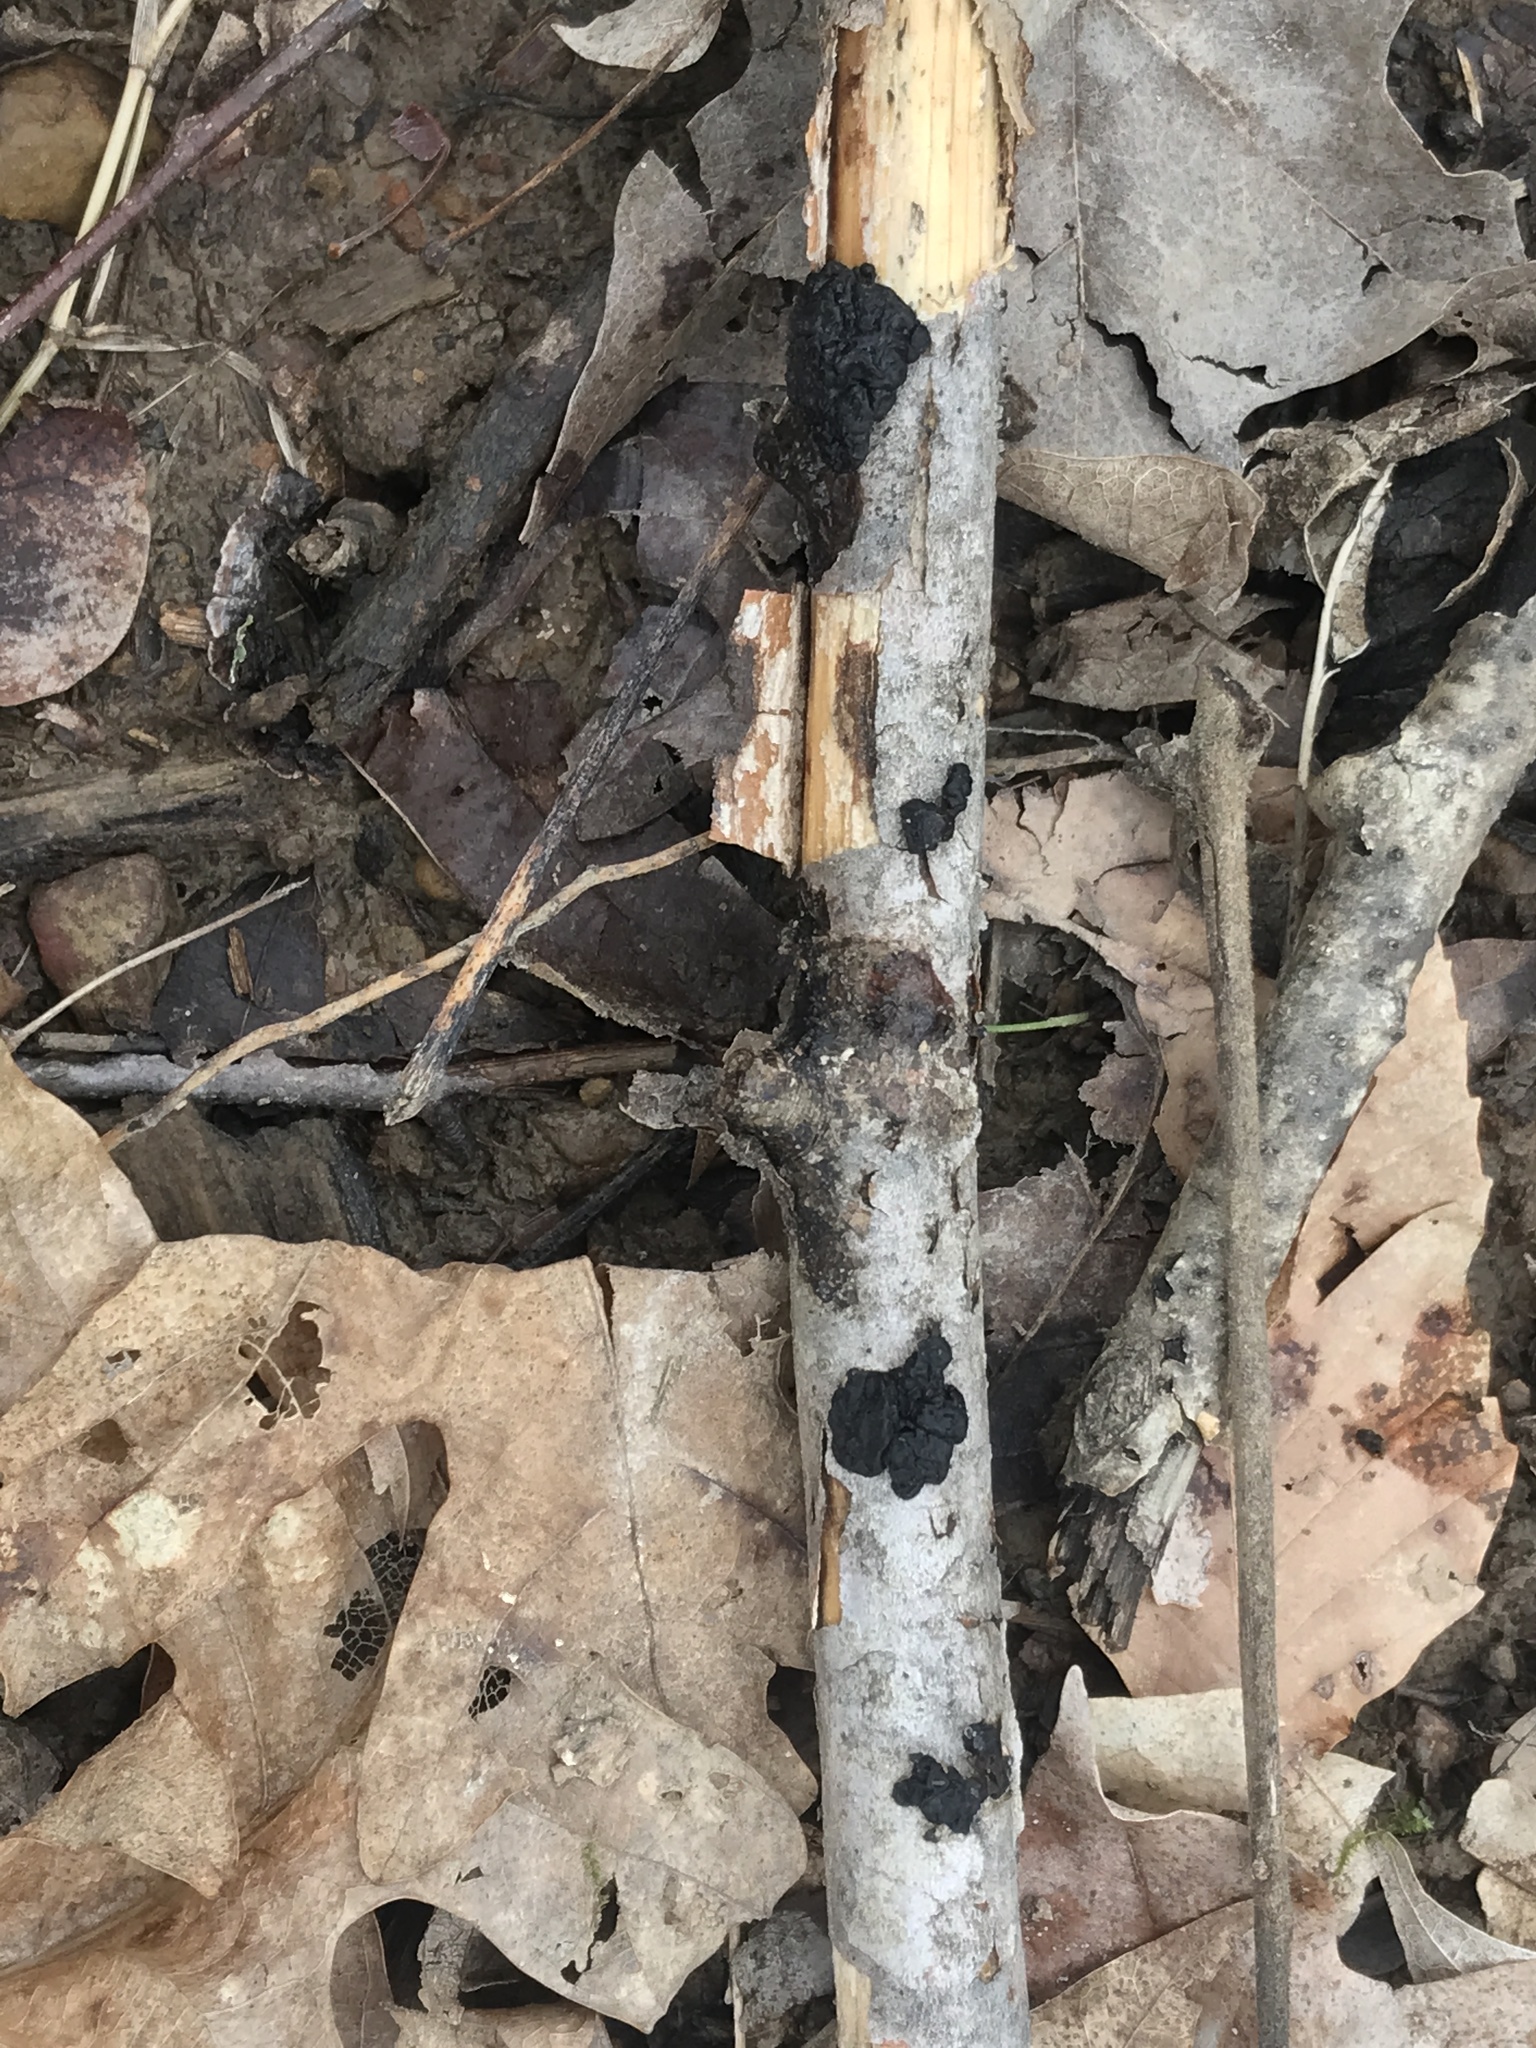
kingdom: Fungi
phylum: Basidiomycota
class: Agaricomycetes
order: Auriculariales
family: Auriculariaceae
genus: Exidia
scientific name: Exidia nigricans
